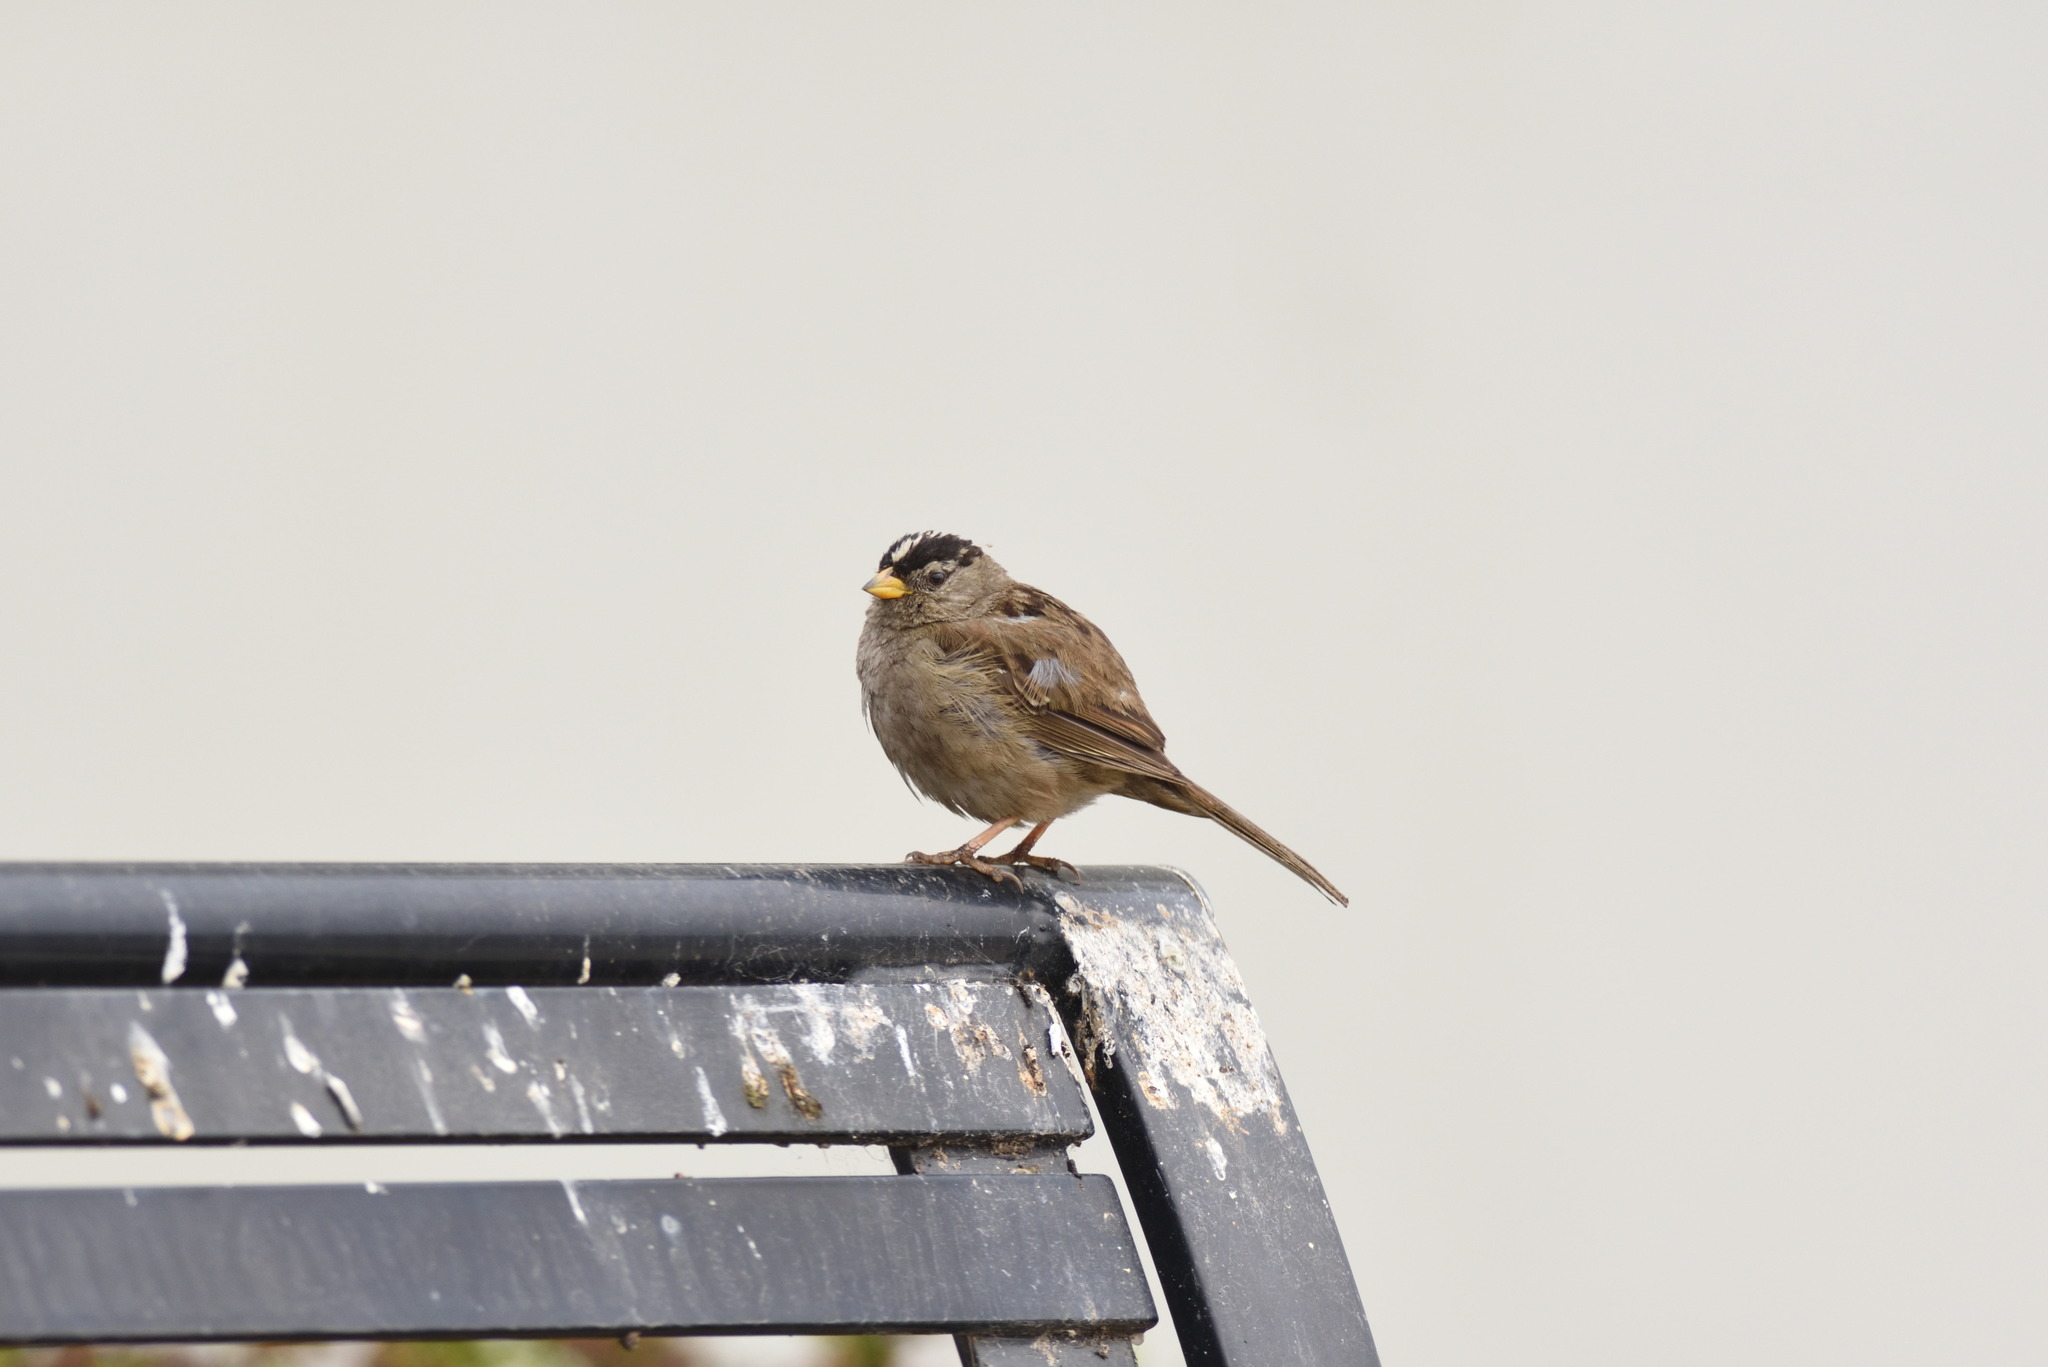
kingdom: Animalia
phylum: Chordata
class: Aves
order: Passeriformes
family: Passerellidae
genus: Zonotrichia
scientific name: Zonotrichia leucophrys
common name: White-crowned sparrow
